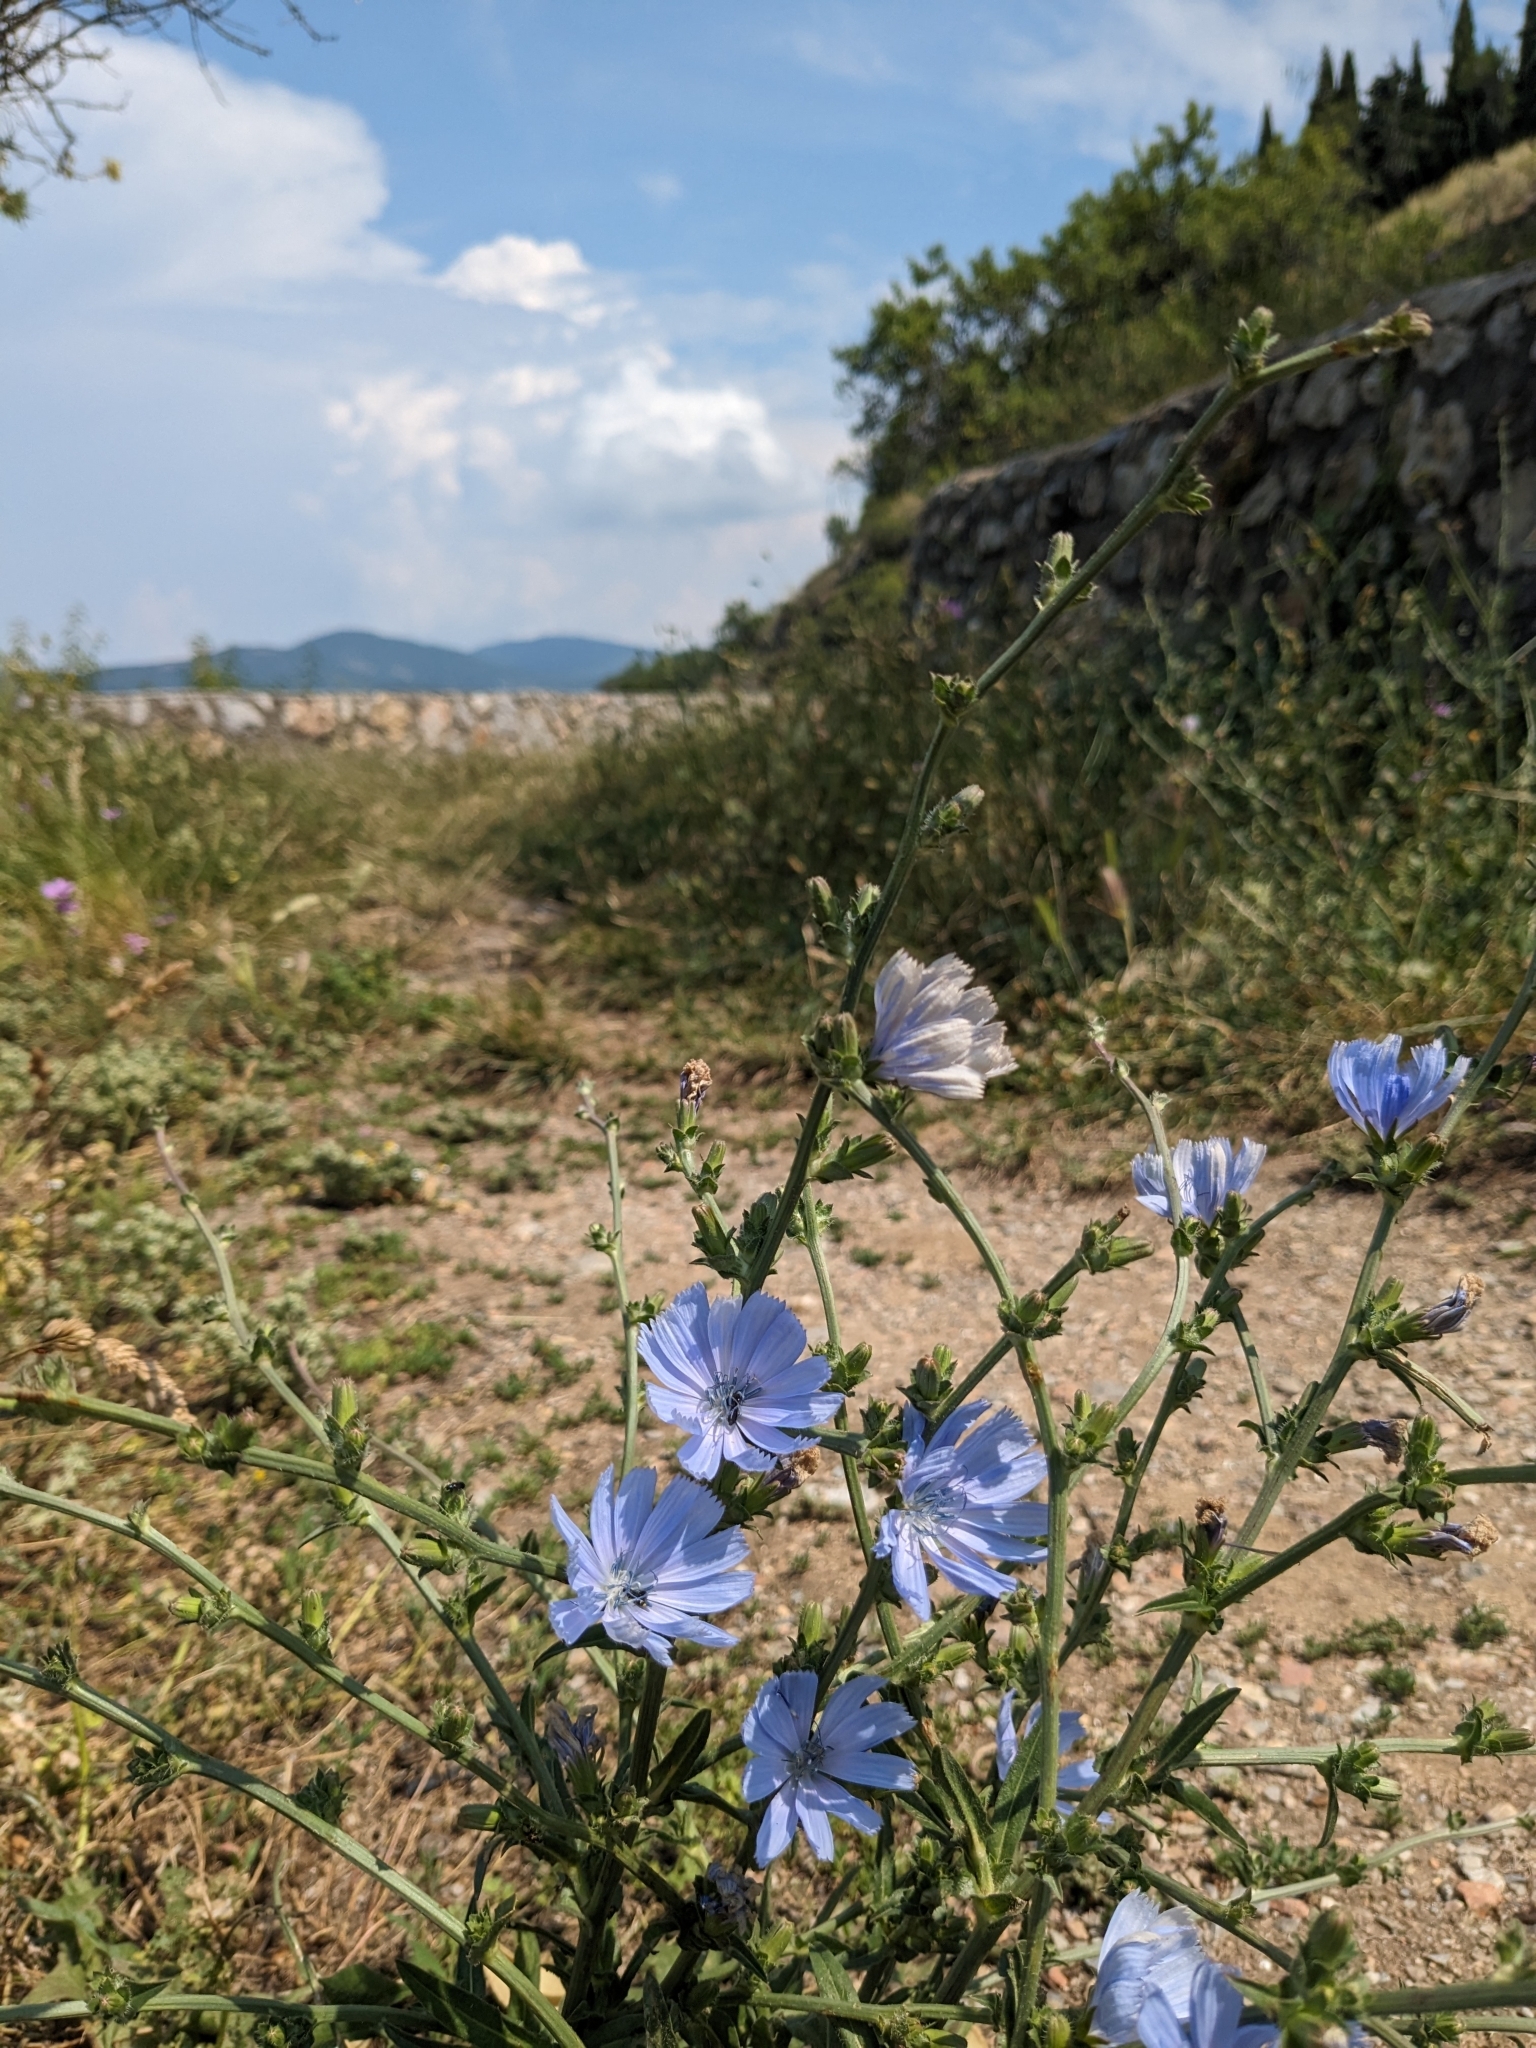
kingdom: Plantae
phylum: Tracheophyta
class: Magnoliopsida
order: Asterales
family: Asteraceae
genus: Cichorium
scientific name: Cichorium intybus
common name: Chicory
